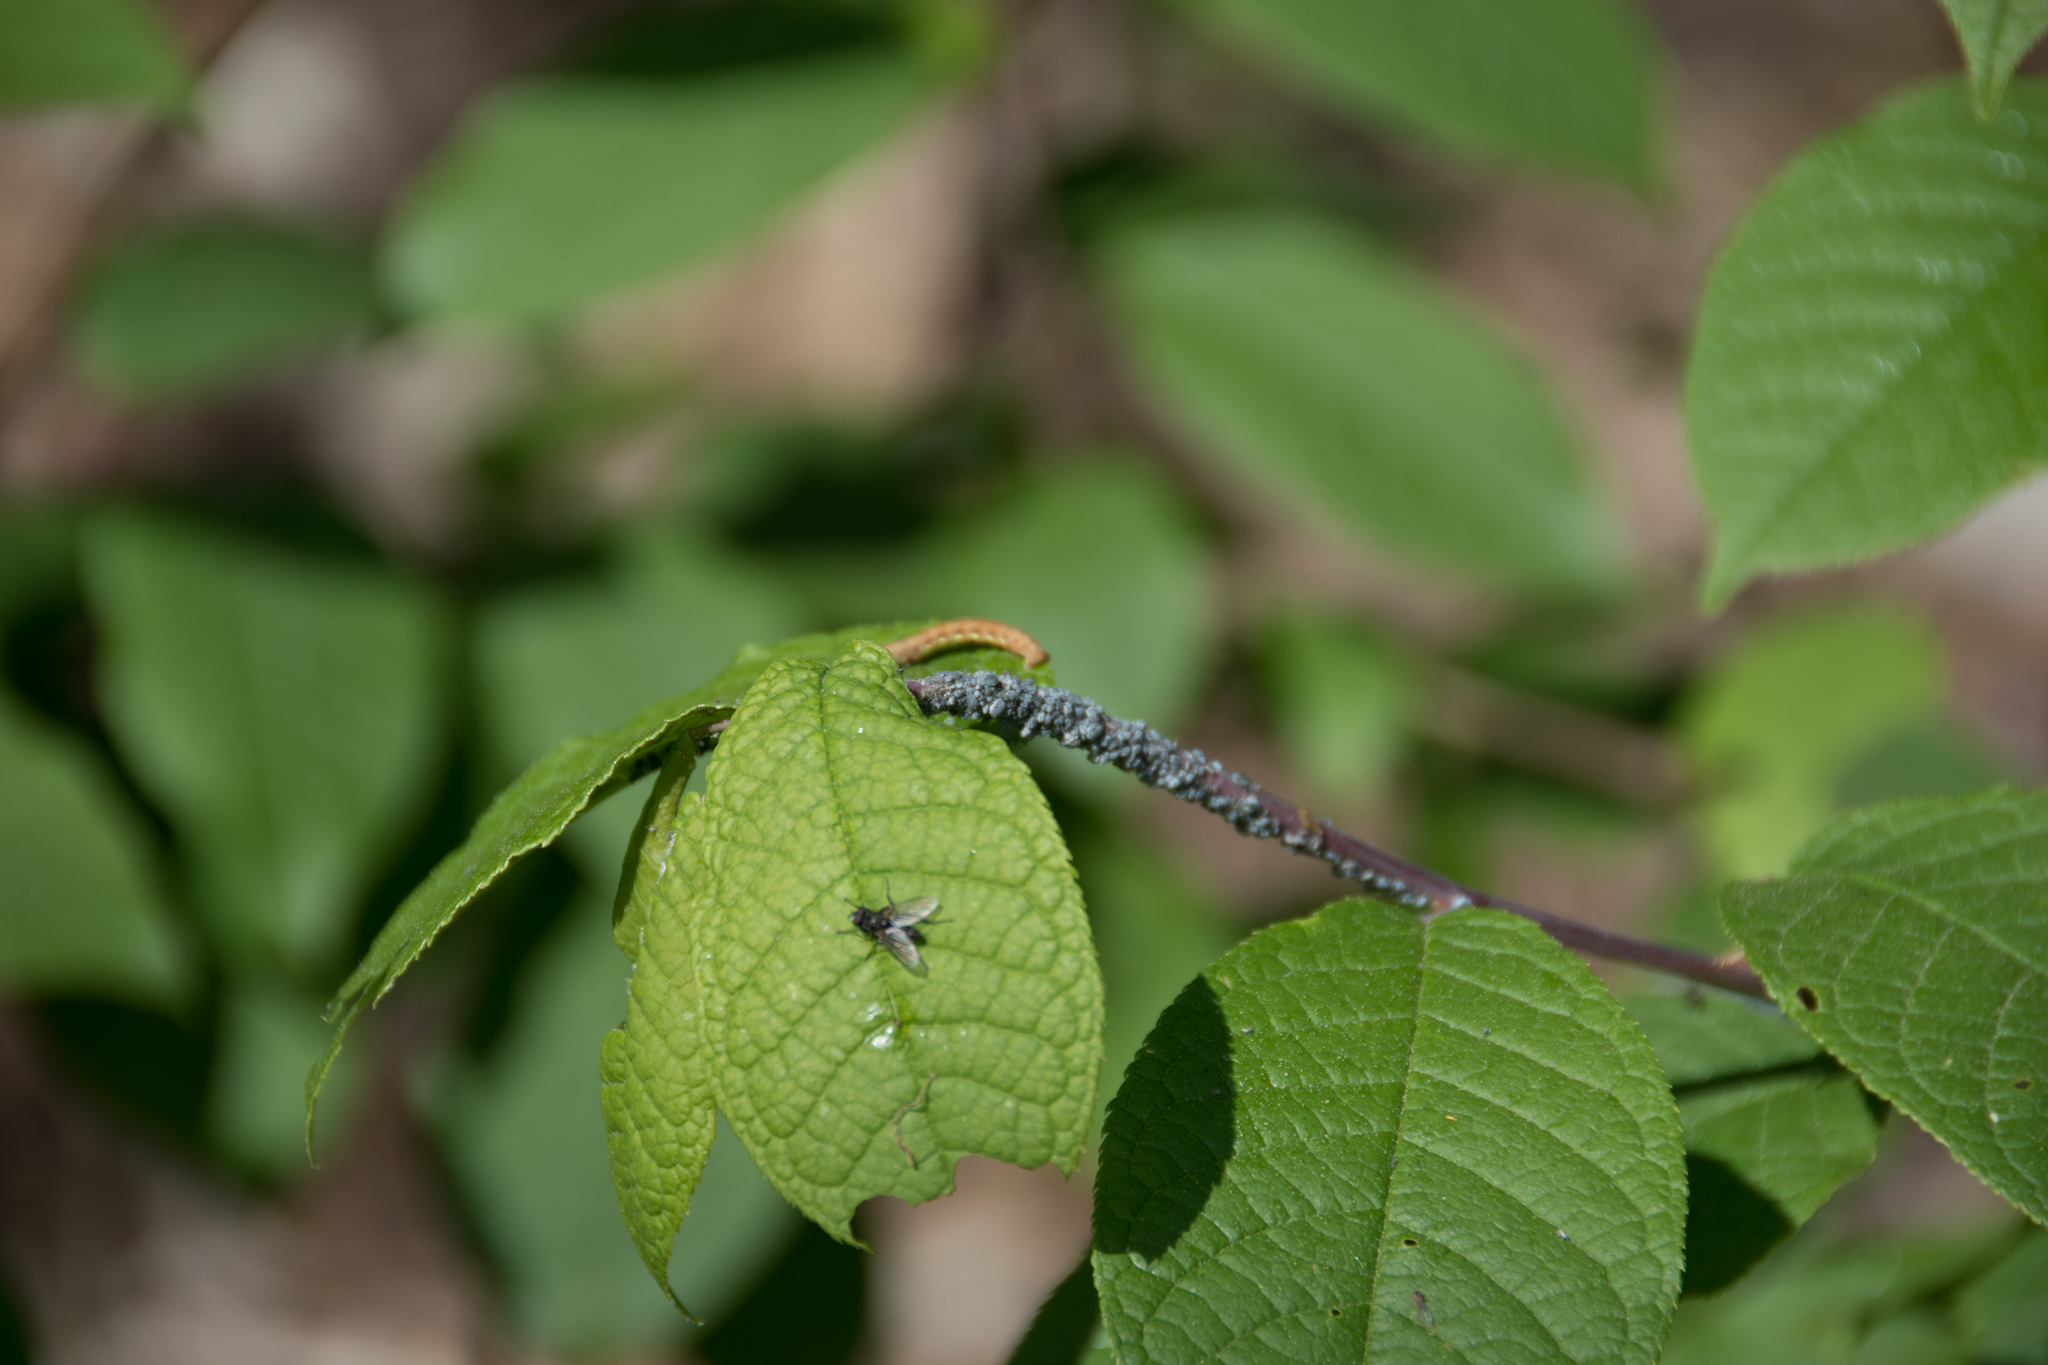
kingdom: Animalia
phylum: Arthropoda
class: Insecta
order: Lepidoptera
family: Geometridae
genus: Erannis
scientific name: Erannis defoliaria
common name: Mottled umber
